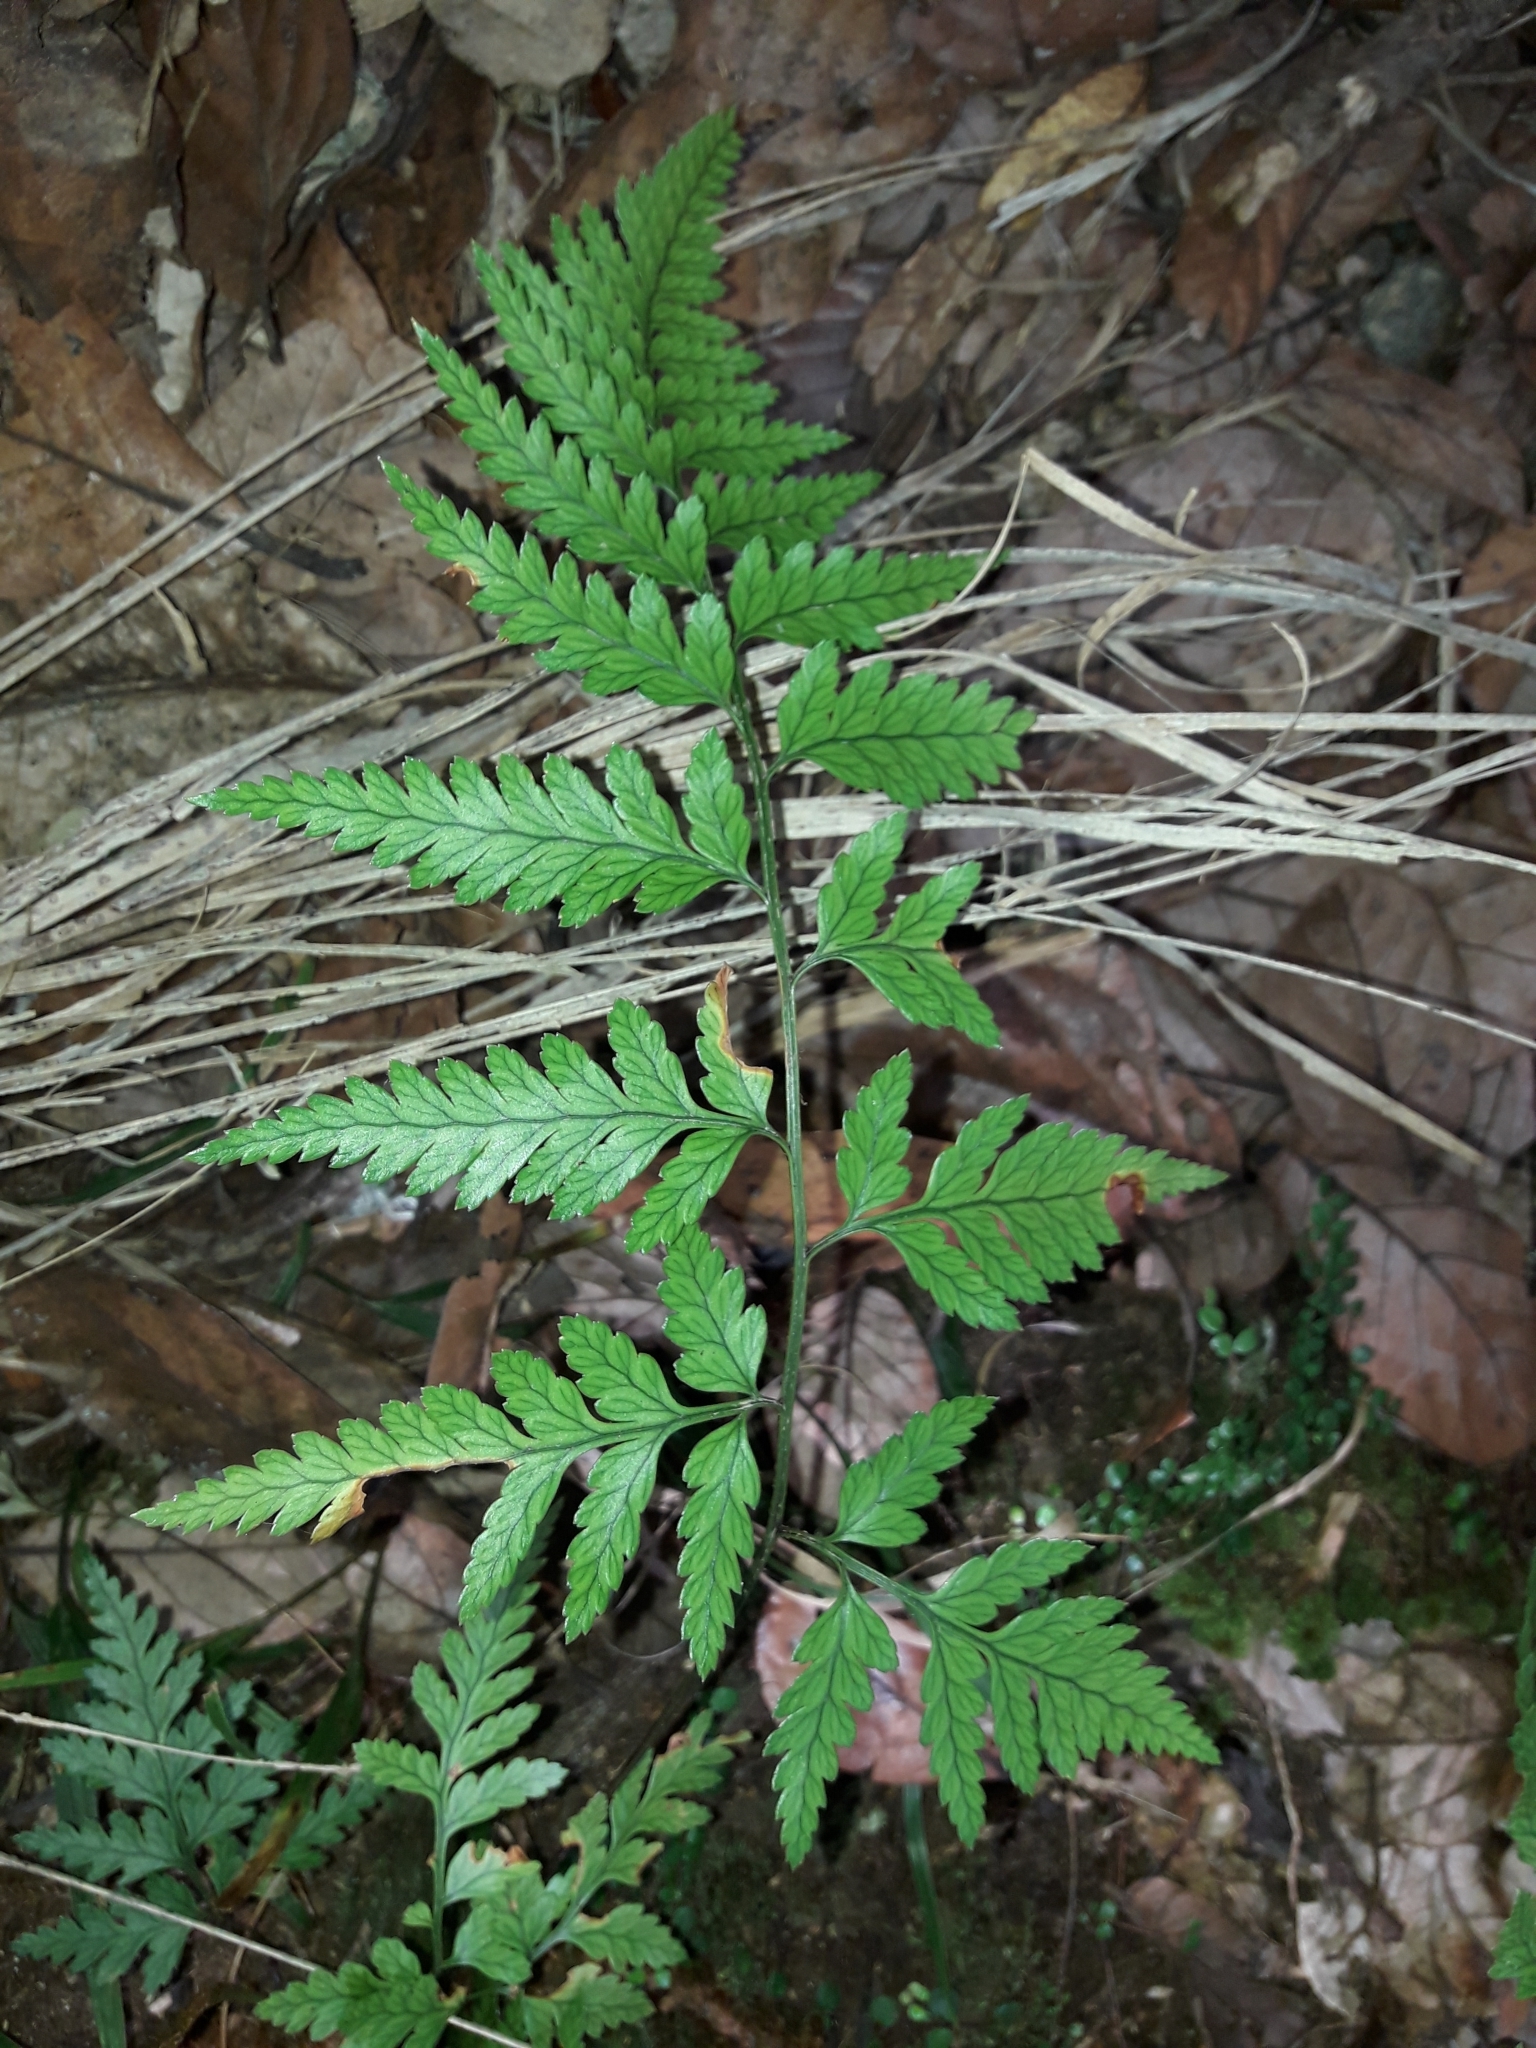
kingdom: Plantae
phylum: Tracheophyta
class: Polypodiopsida
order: Polypodiales
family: Dryopteridaceae
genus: Rumohra
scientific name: Rumohra adiantiformis
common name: Leather fern
